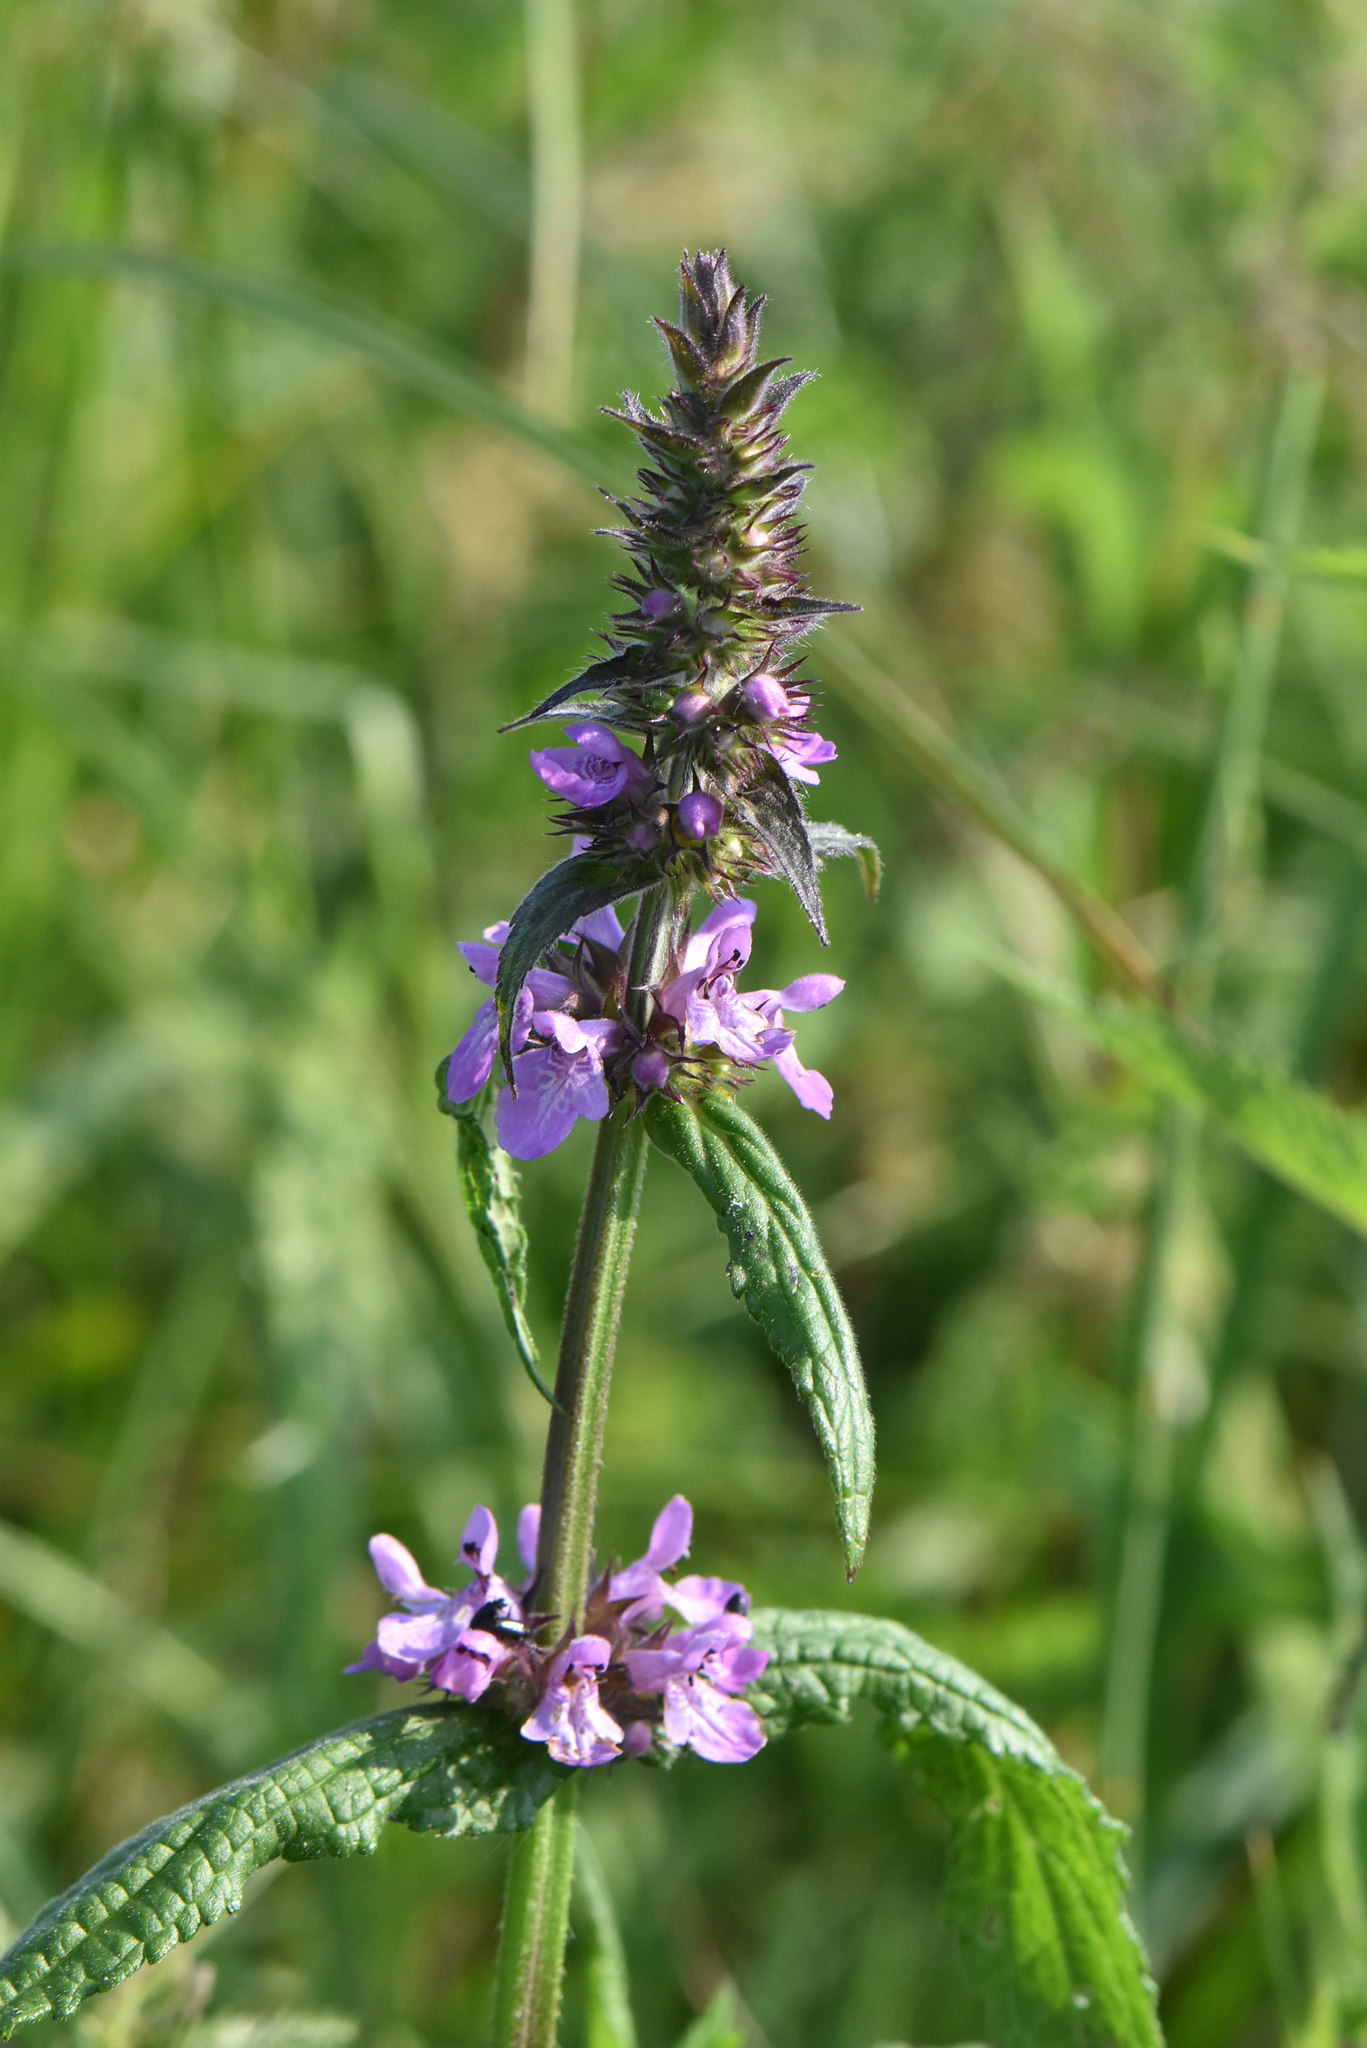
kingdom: Plantae
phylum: Tracheophyta
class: Magnoliopsida
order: Lamiales
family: Lamiaceae
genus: Stachys
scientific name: Stachys palustris
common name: Marsh woundwort
